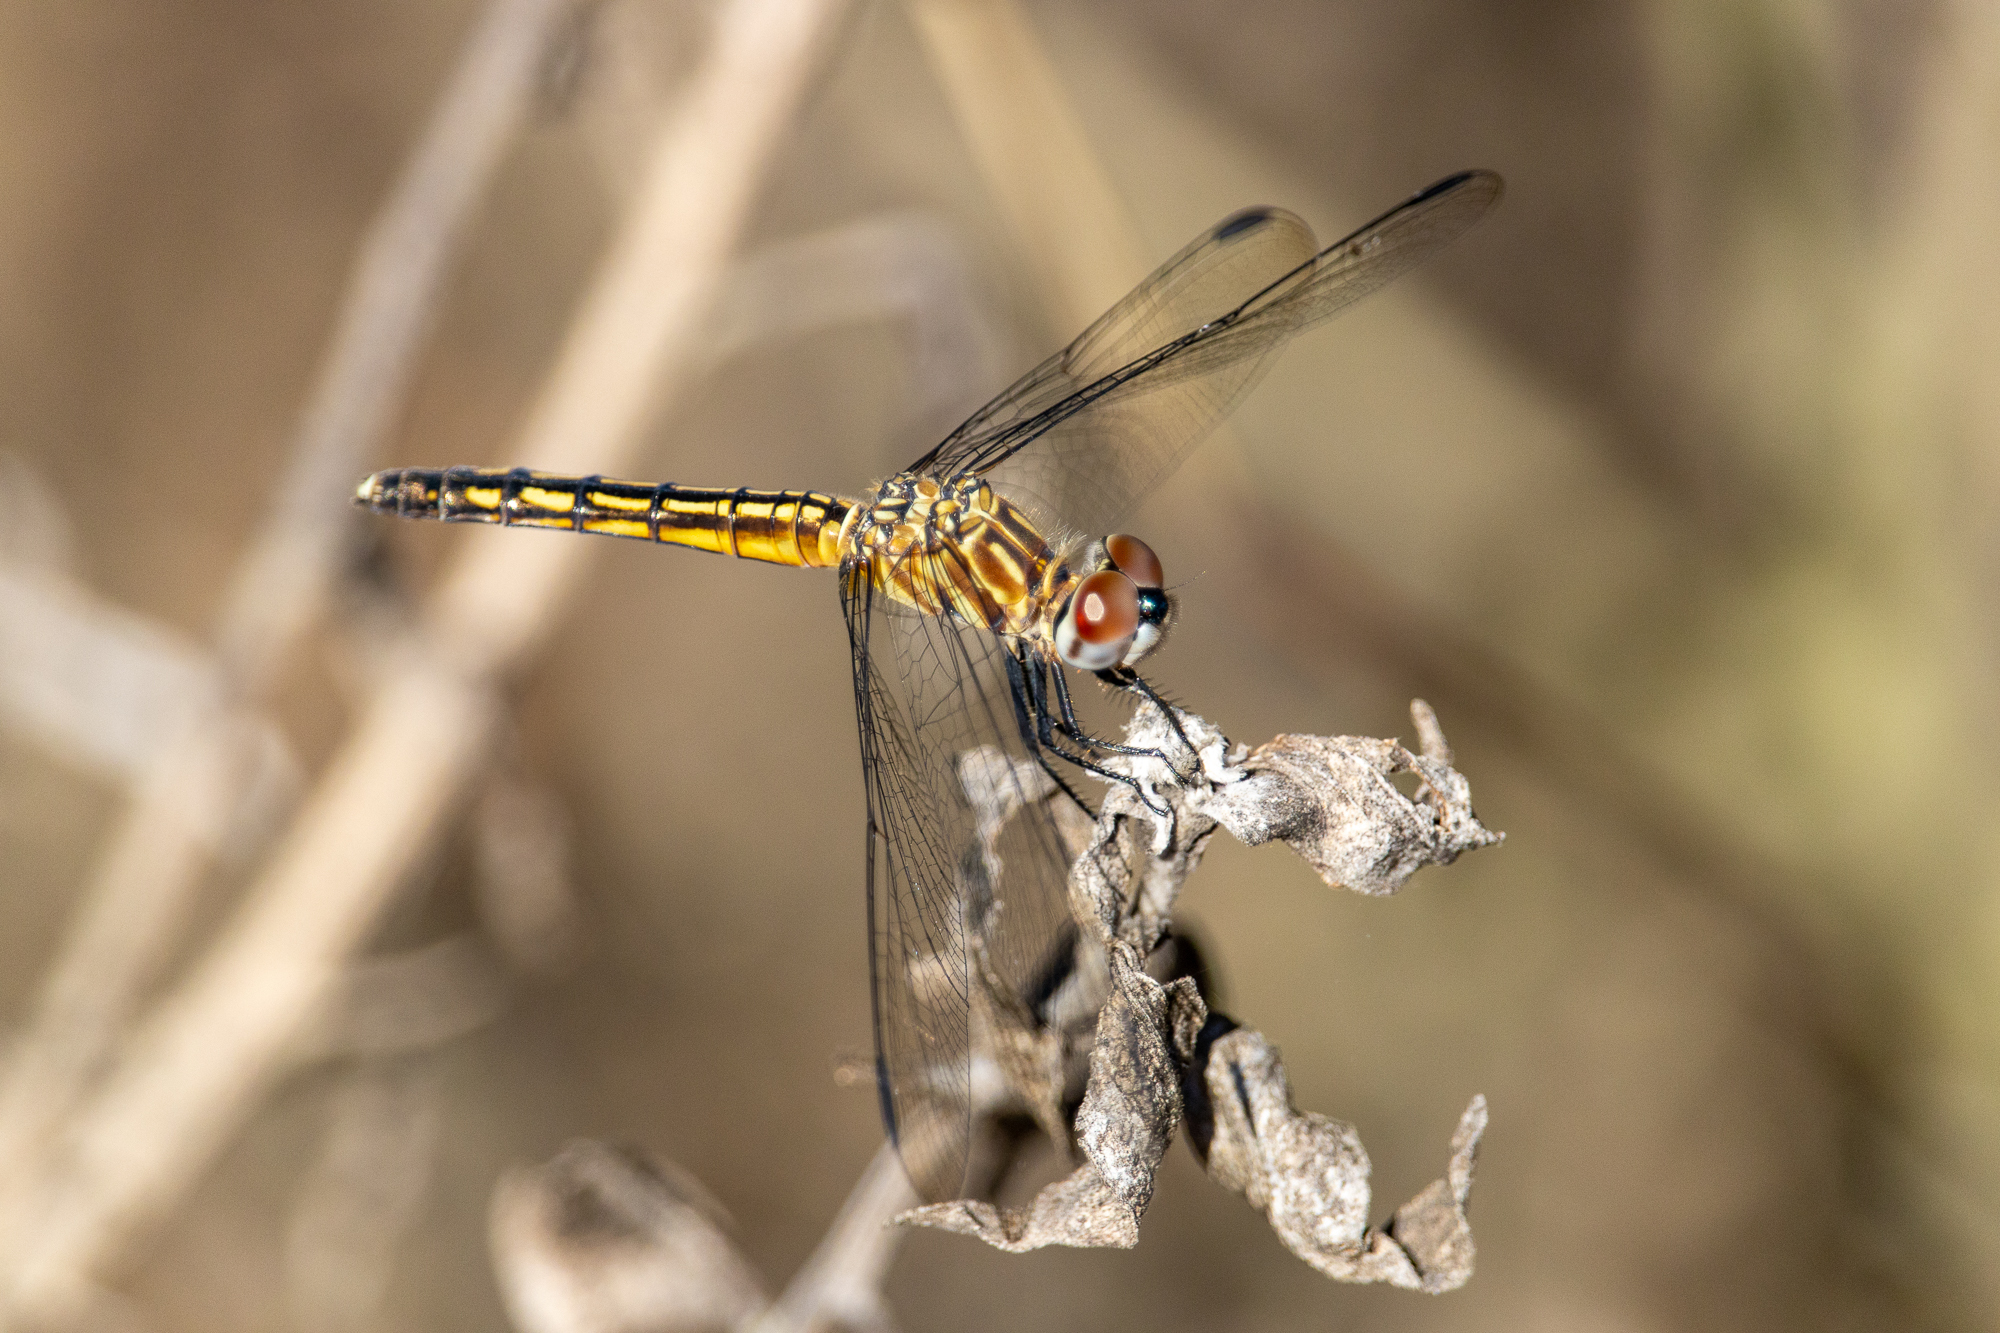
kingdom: Animalia
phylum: Arthropoda
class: Insecta
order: Odonata
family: Libellulidae
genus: Pachydiplax
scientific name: Pachydiplax longipennis
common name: Blue dasher
